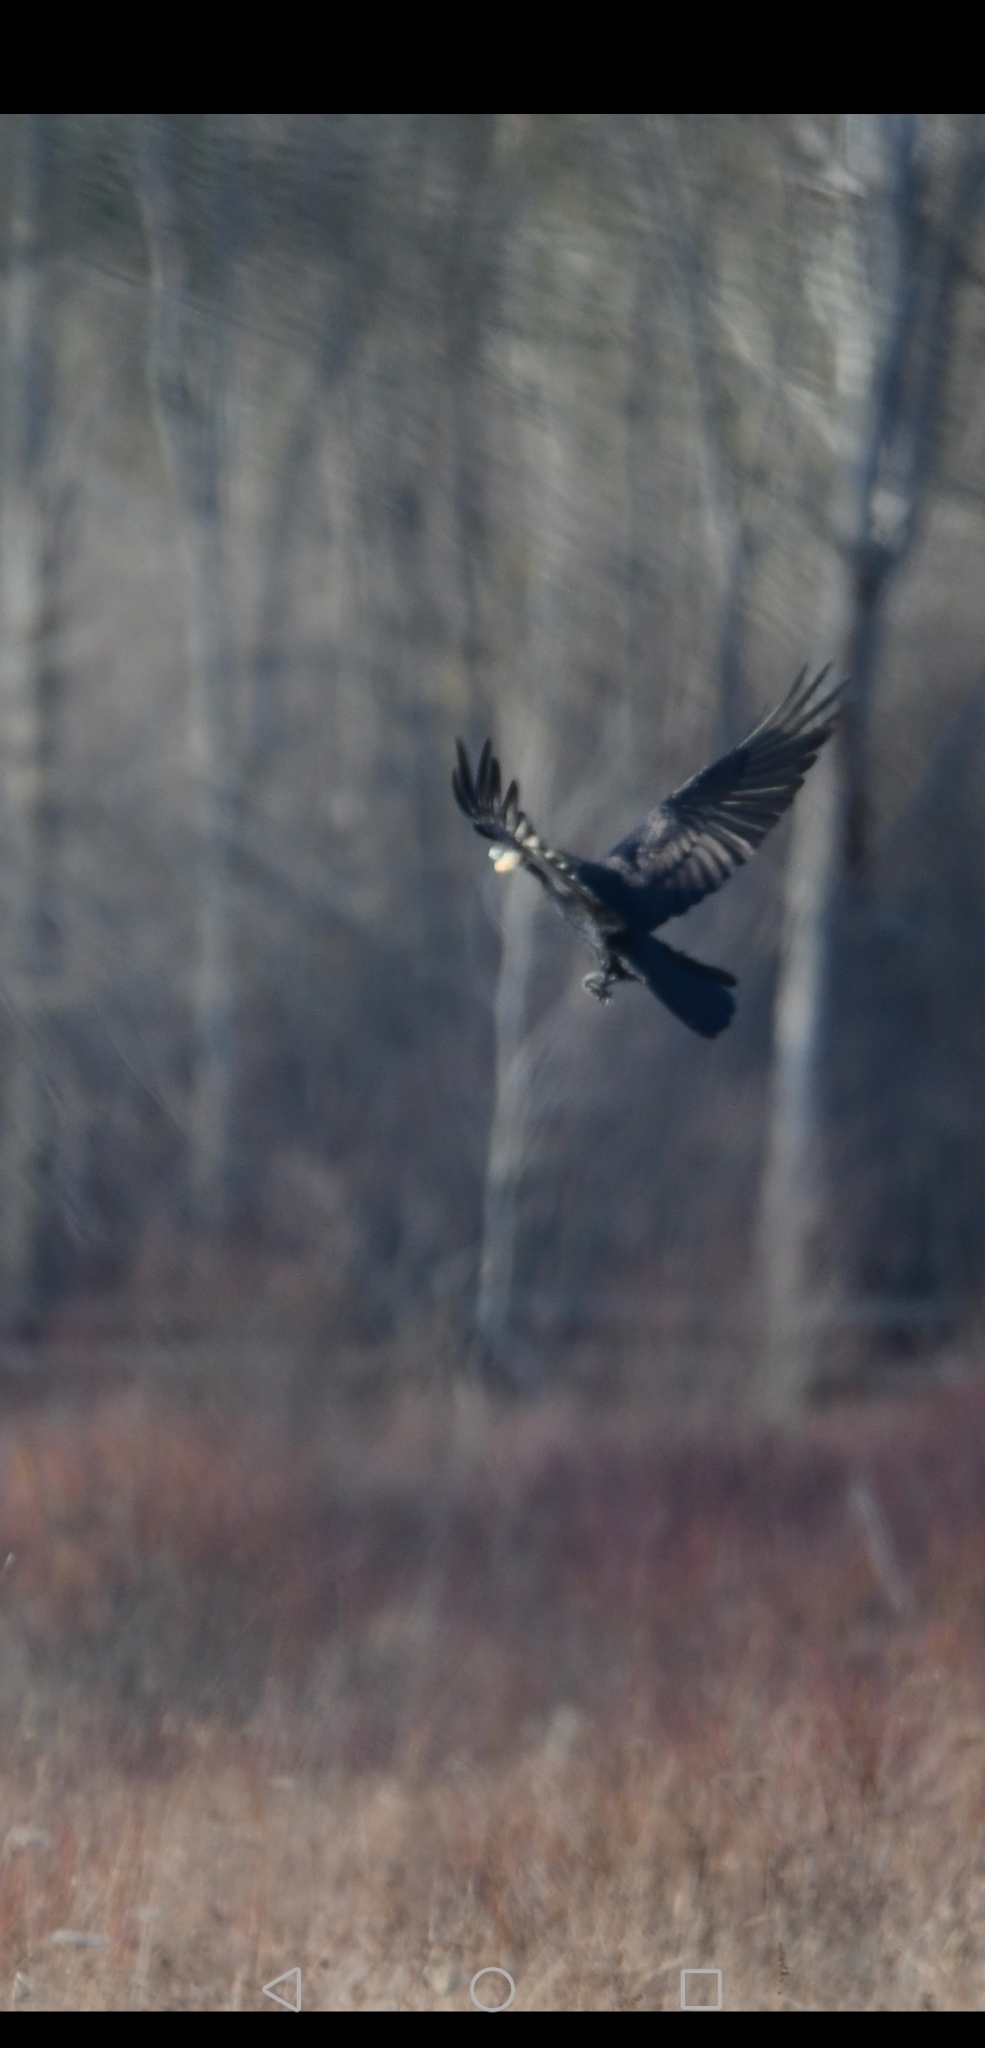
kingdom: Animalia
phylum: Chordata
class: Aves
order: Passeriformes
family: Corvidae
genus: Corvus
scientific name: Corvus corax
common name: Common raven
